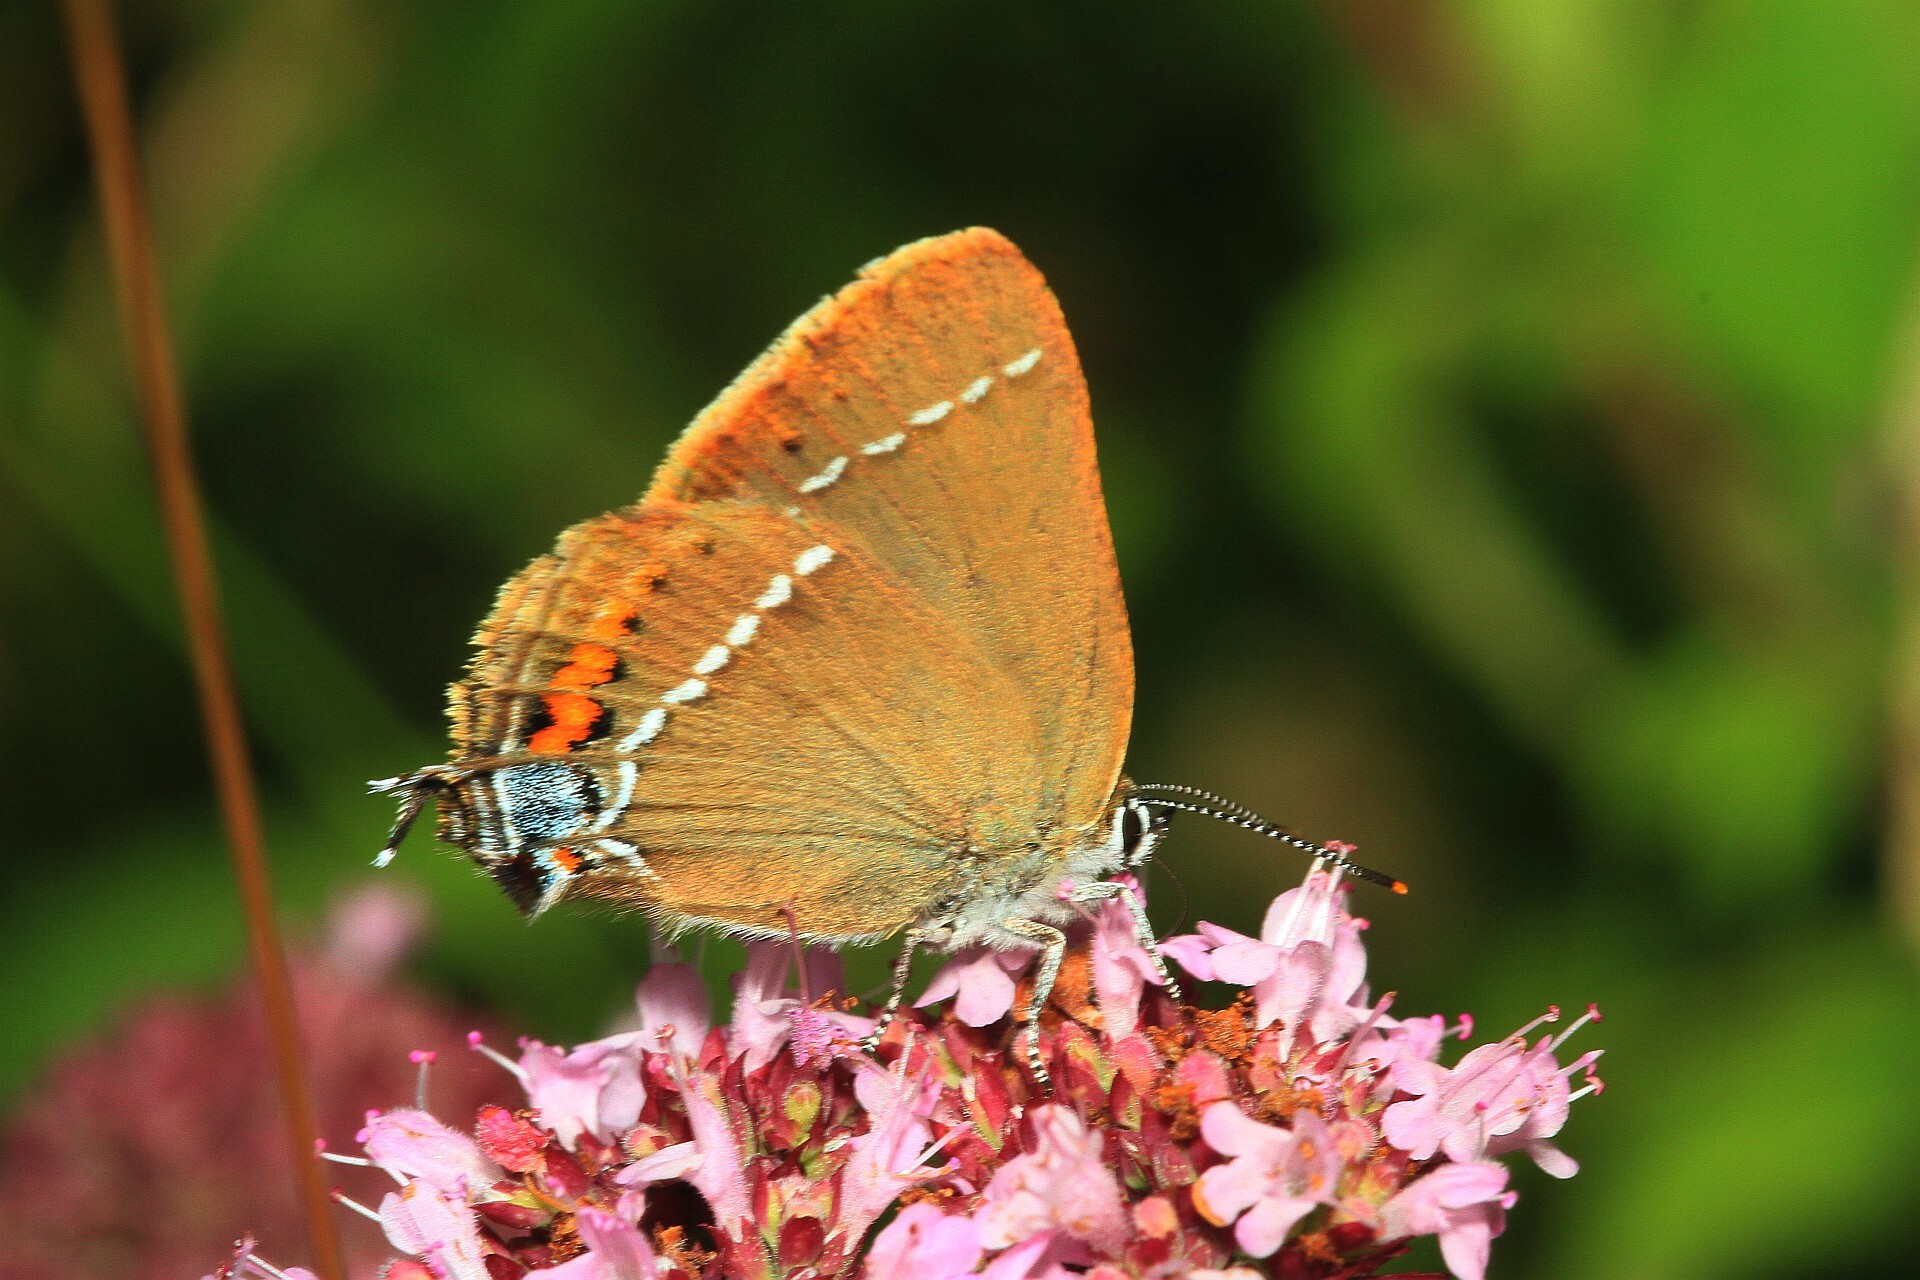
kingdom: Animalia
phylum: Arthropoda
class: Insecta
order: Lepidoptera
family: Lycaenidae
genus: Tuttiola
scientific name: Tuttiola spini
